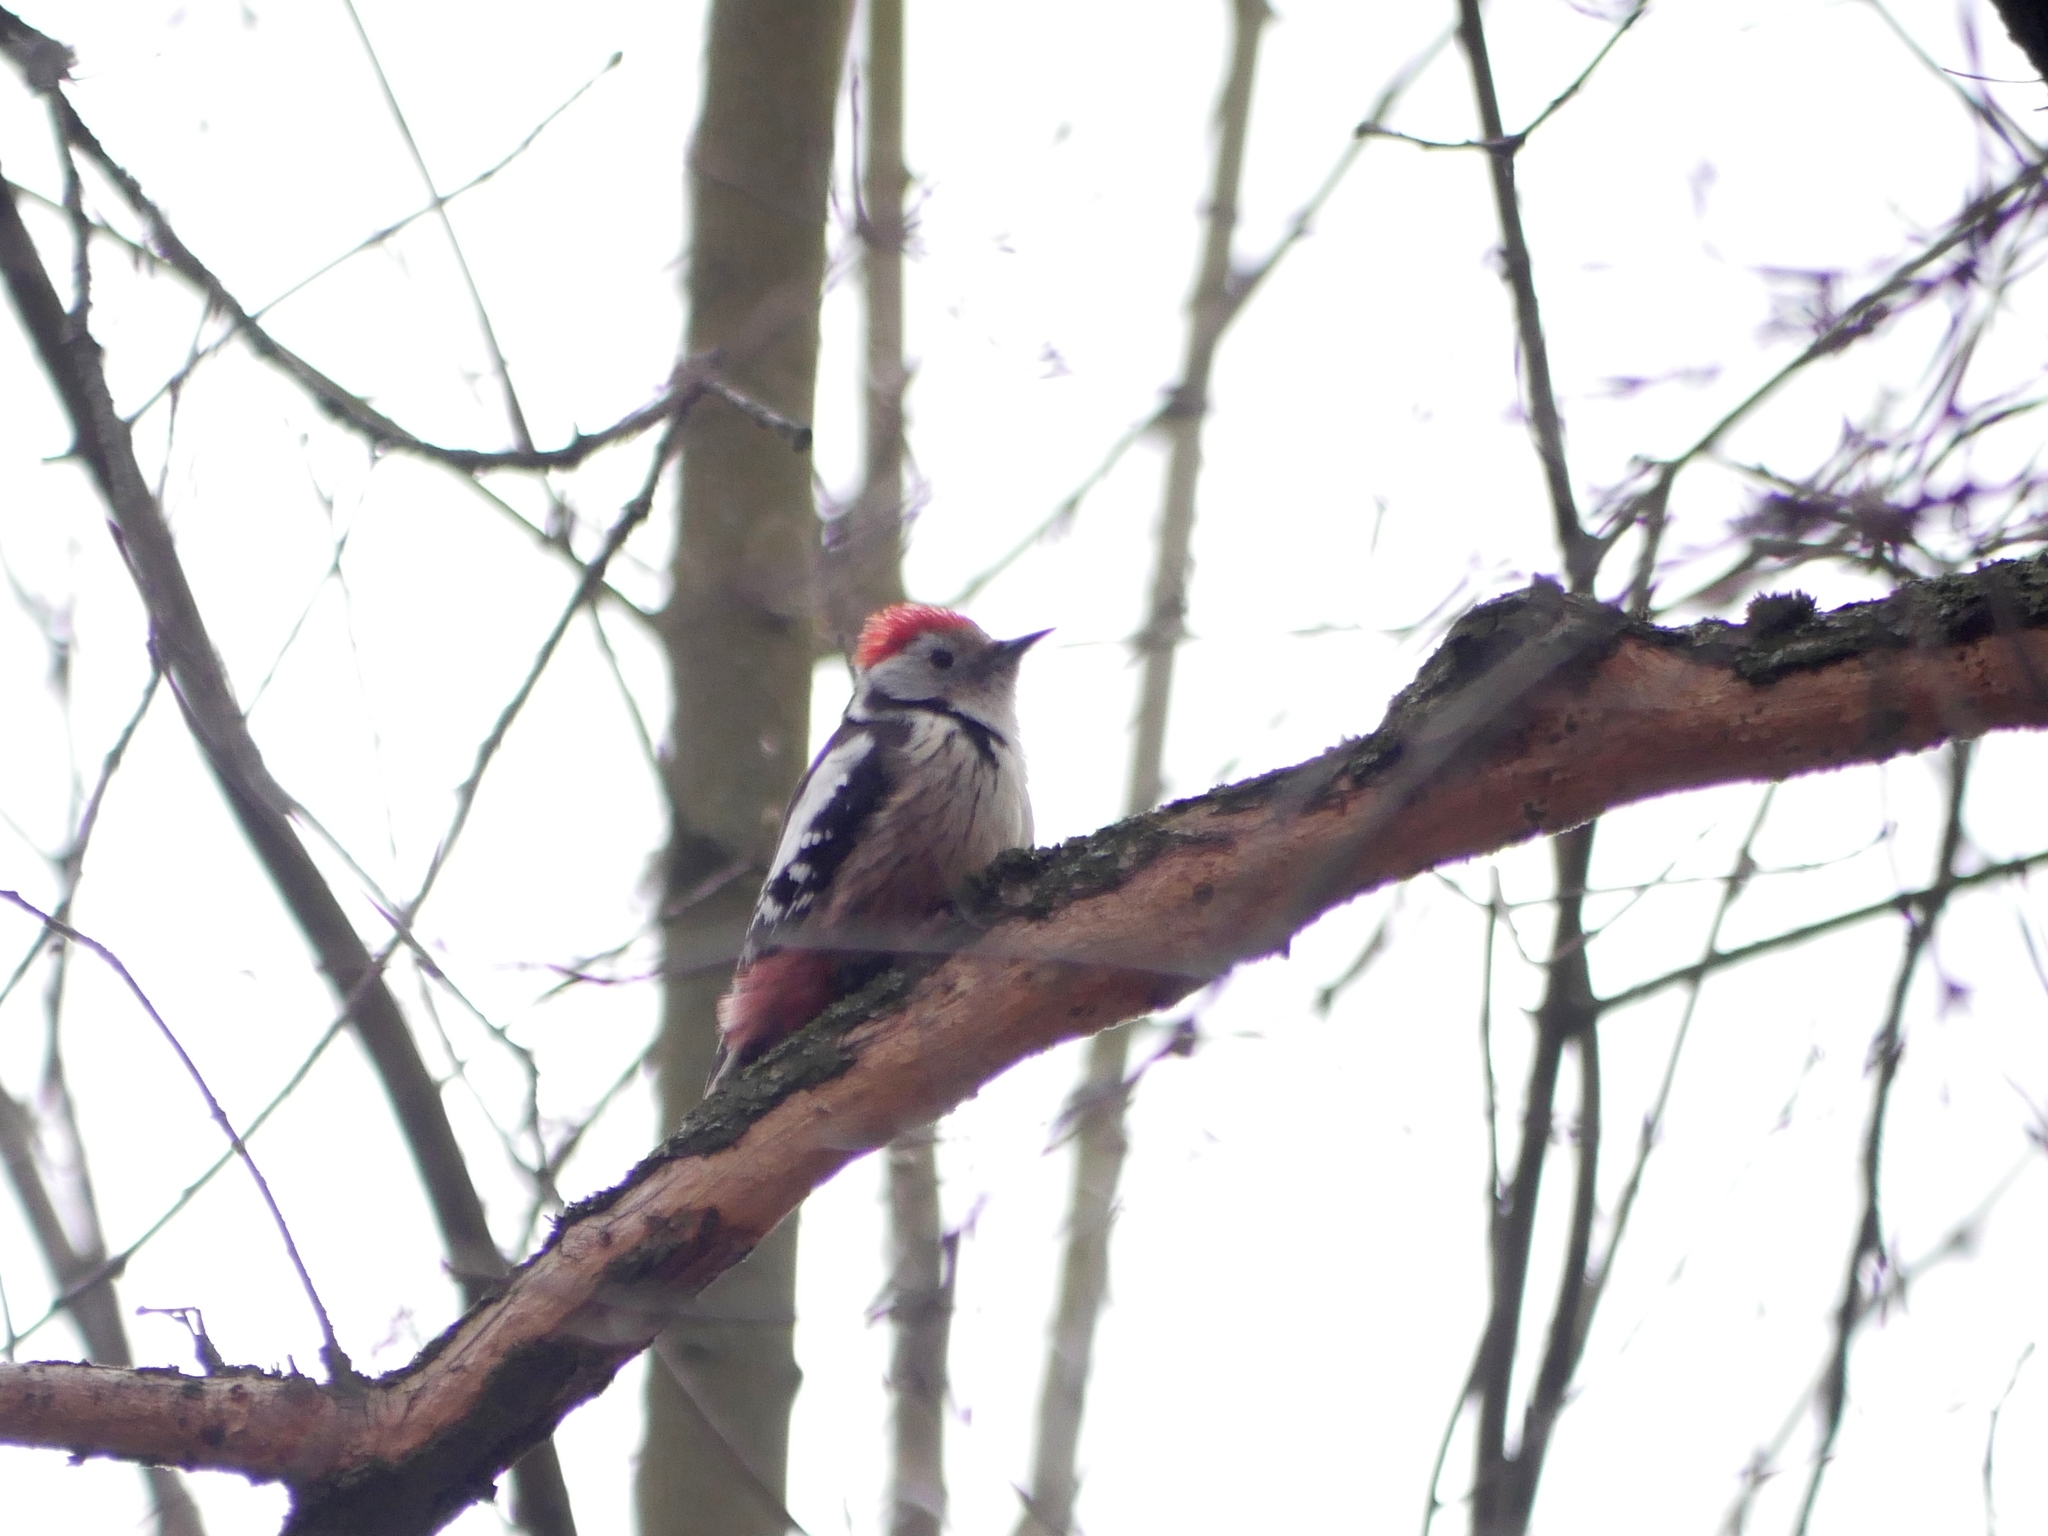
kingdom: Animalia
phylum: Chordata
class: Aves
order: Piciformes
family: Picidae
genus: Dendrocoptes
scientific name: Dendrocoptes medius
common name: Middle spotted woodpecker
